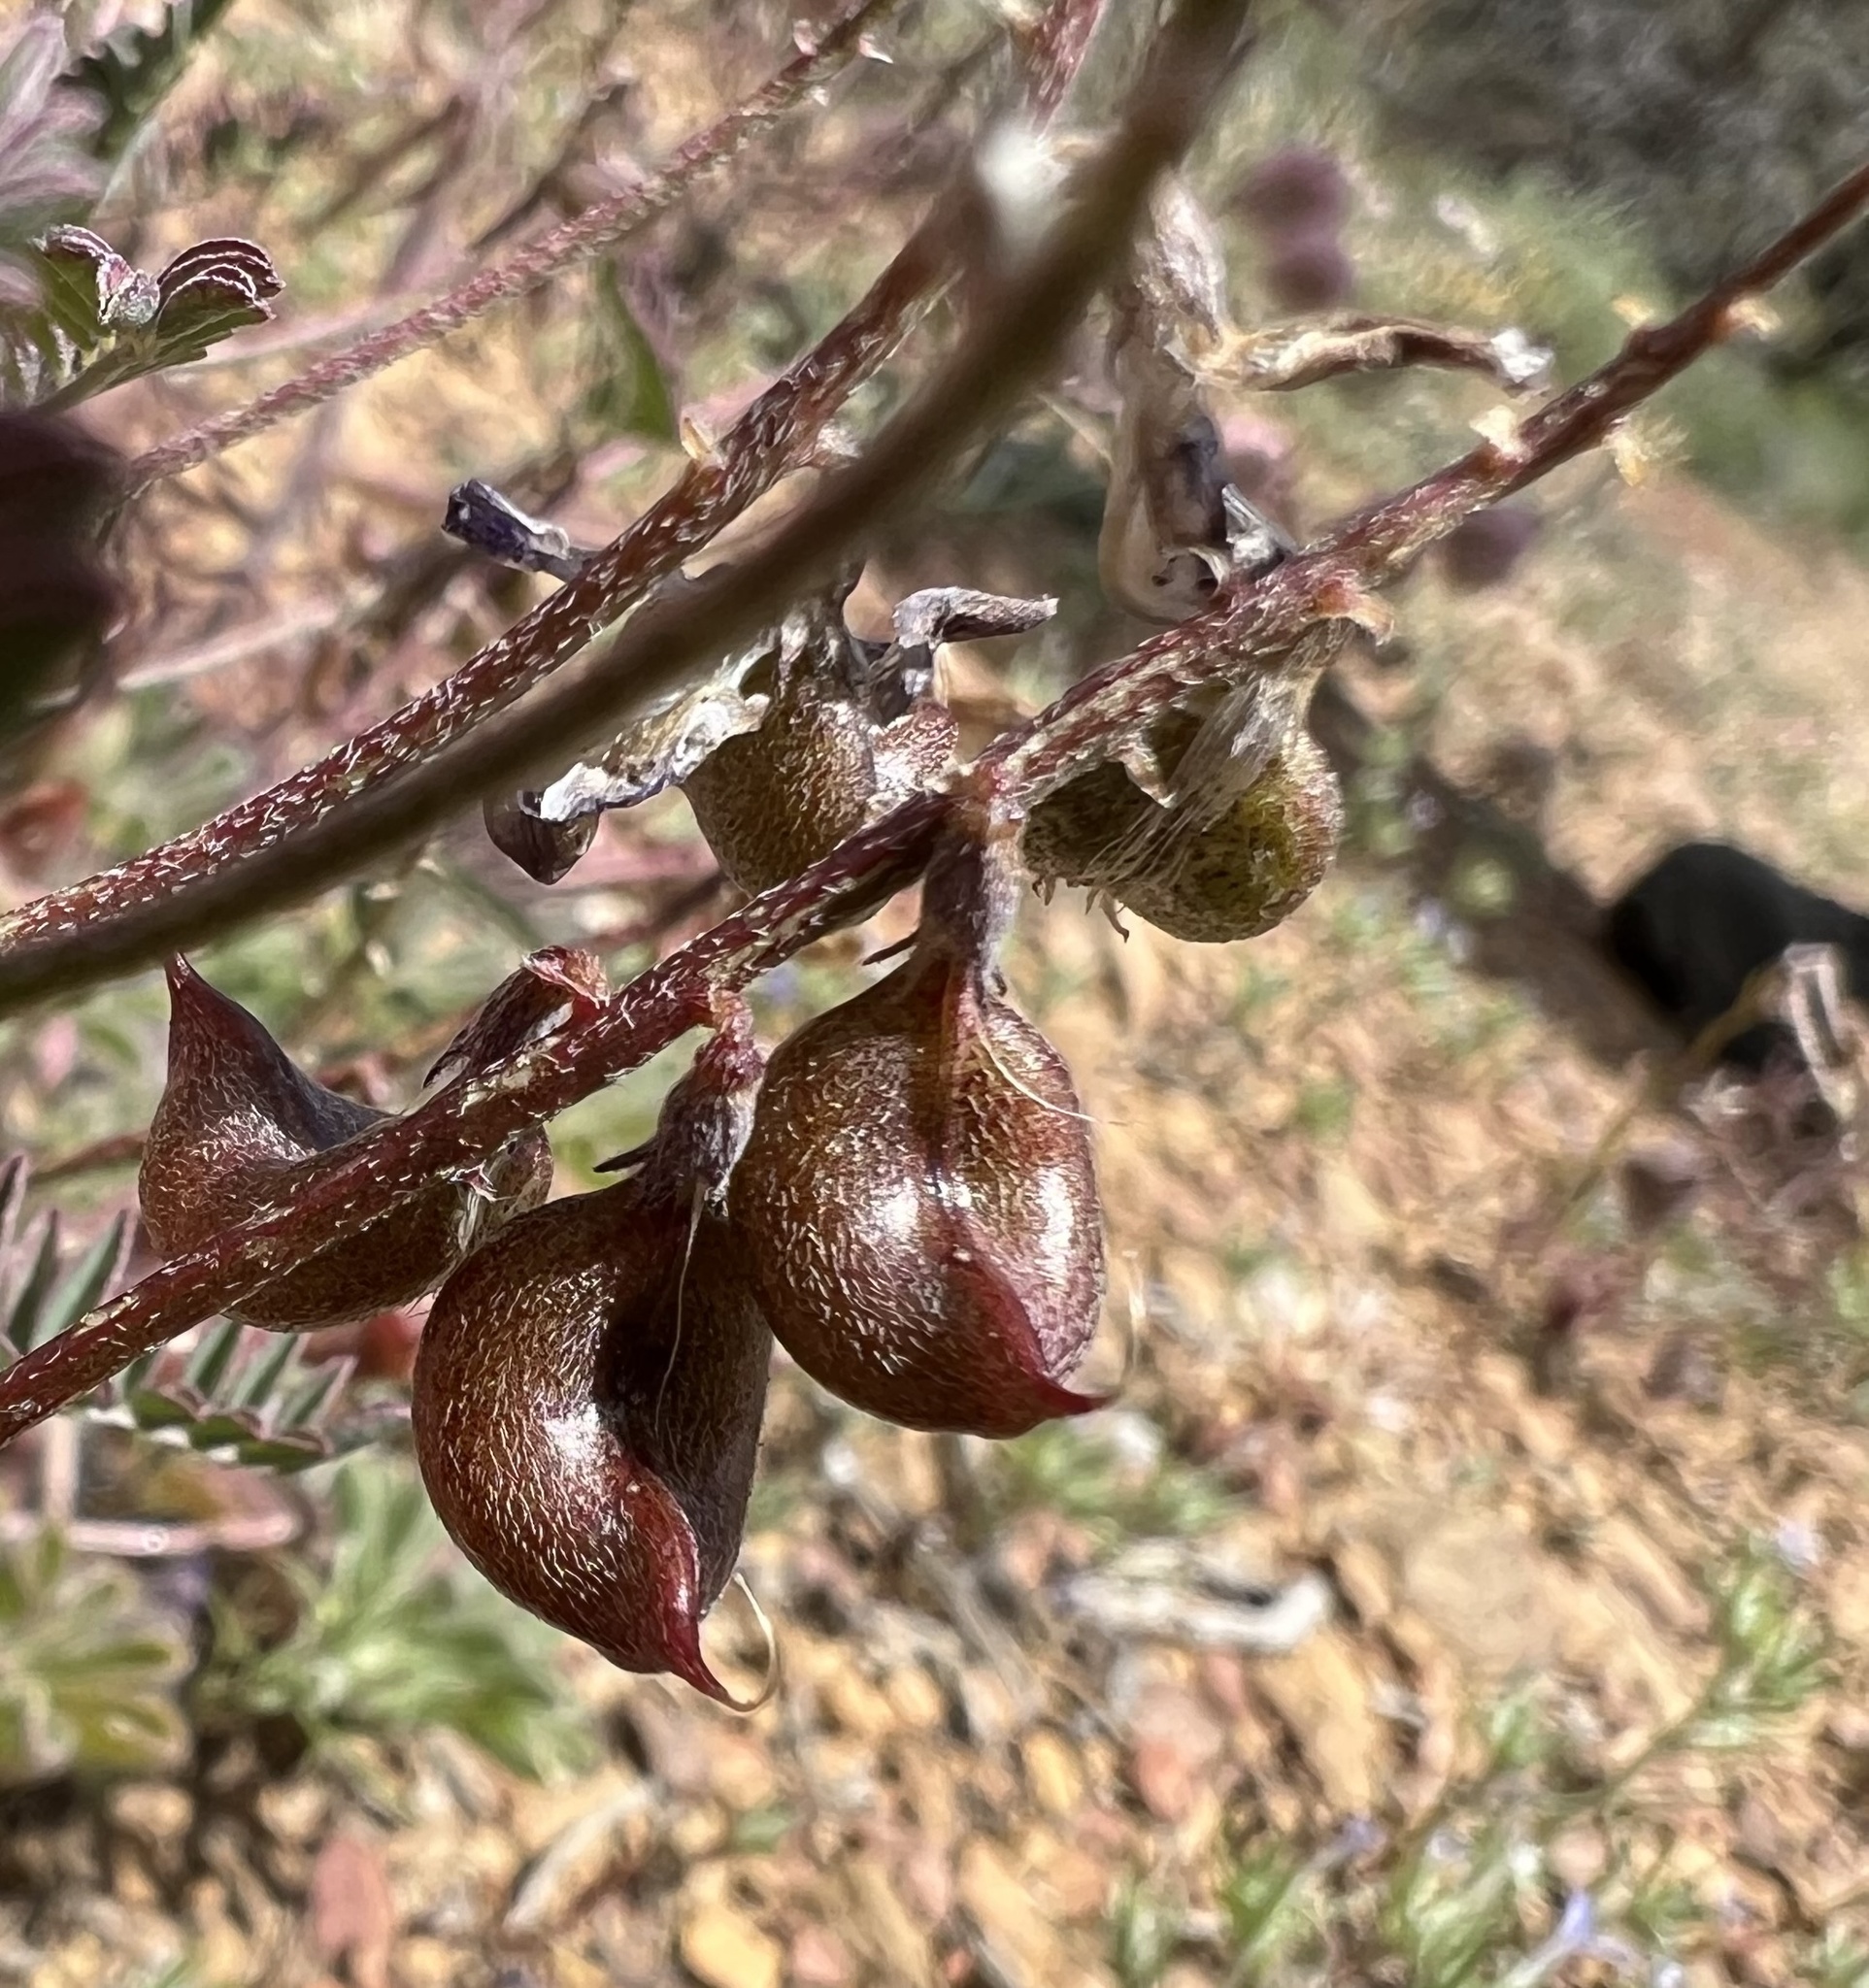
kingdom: Plantae
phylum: Tracheophyta
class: Magnoliopsida
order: Fabales
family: Fabaceae
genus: Astragalus
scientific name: Astragalus inyoensis
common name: Inyo locoweed
